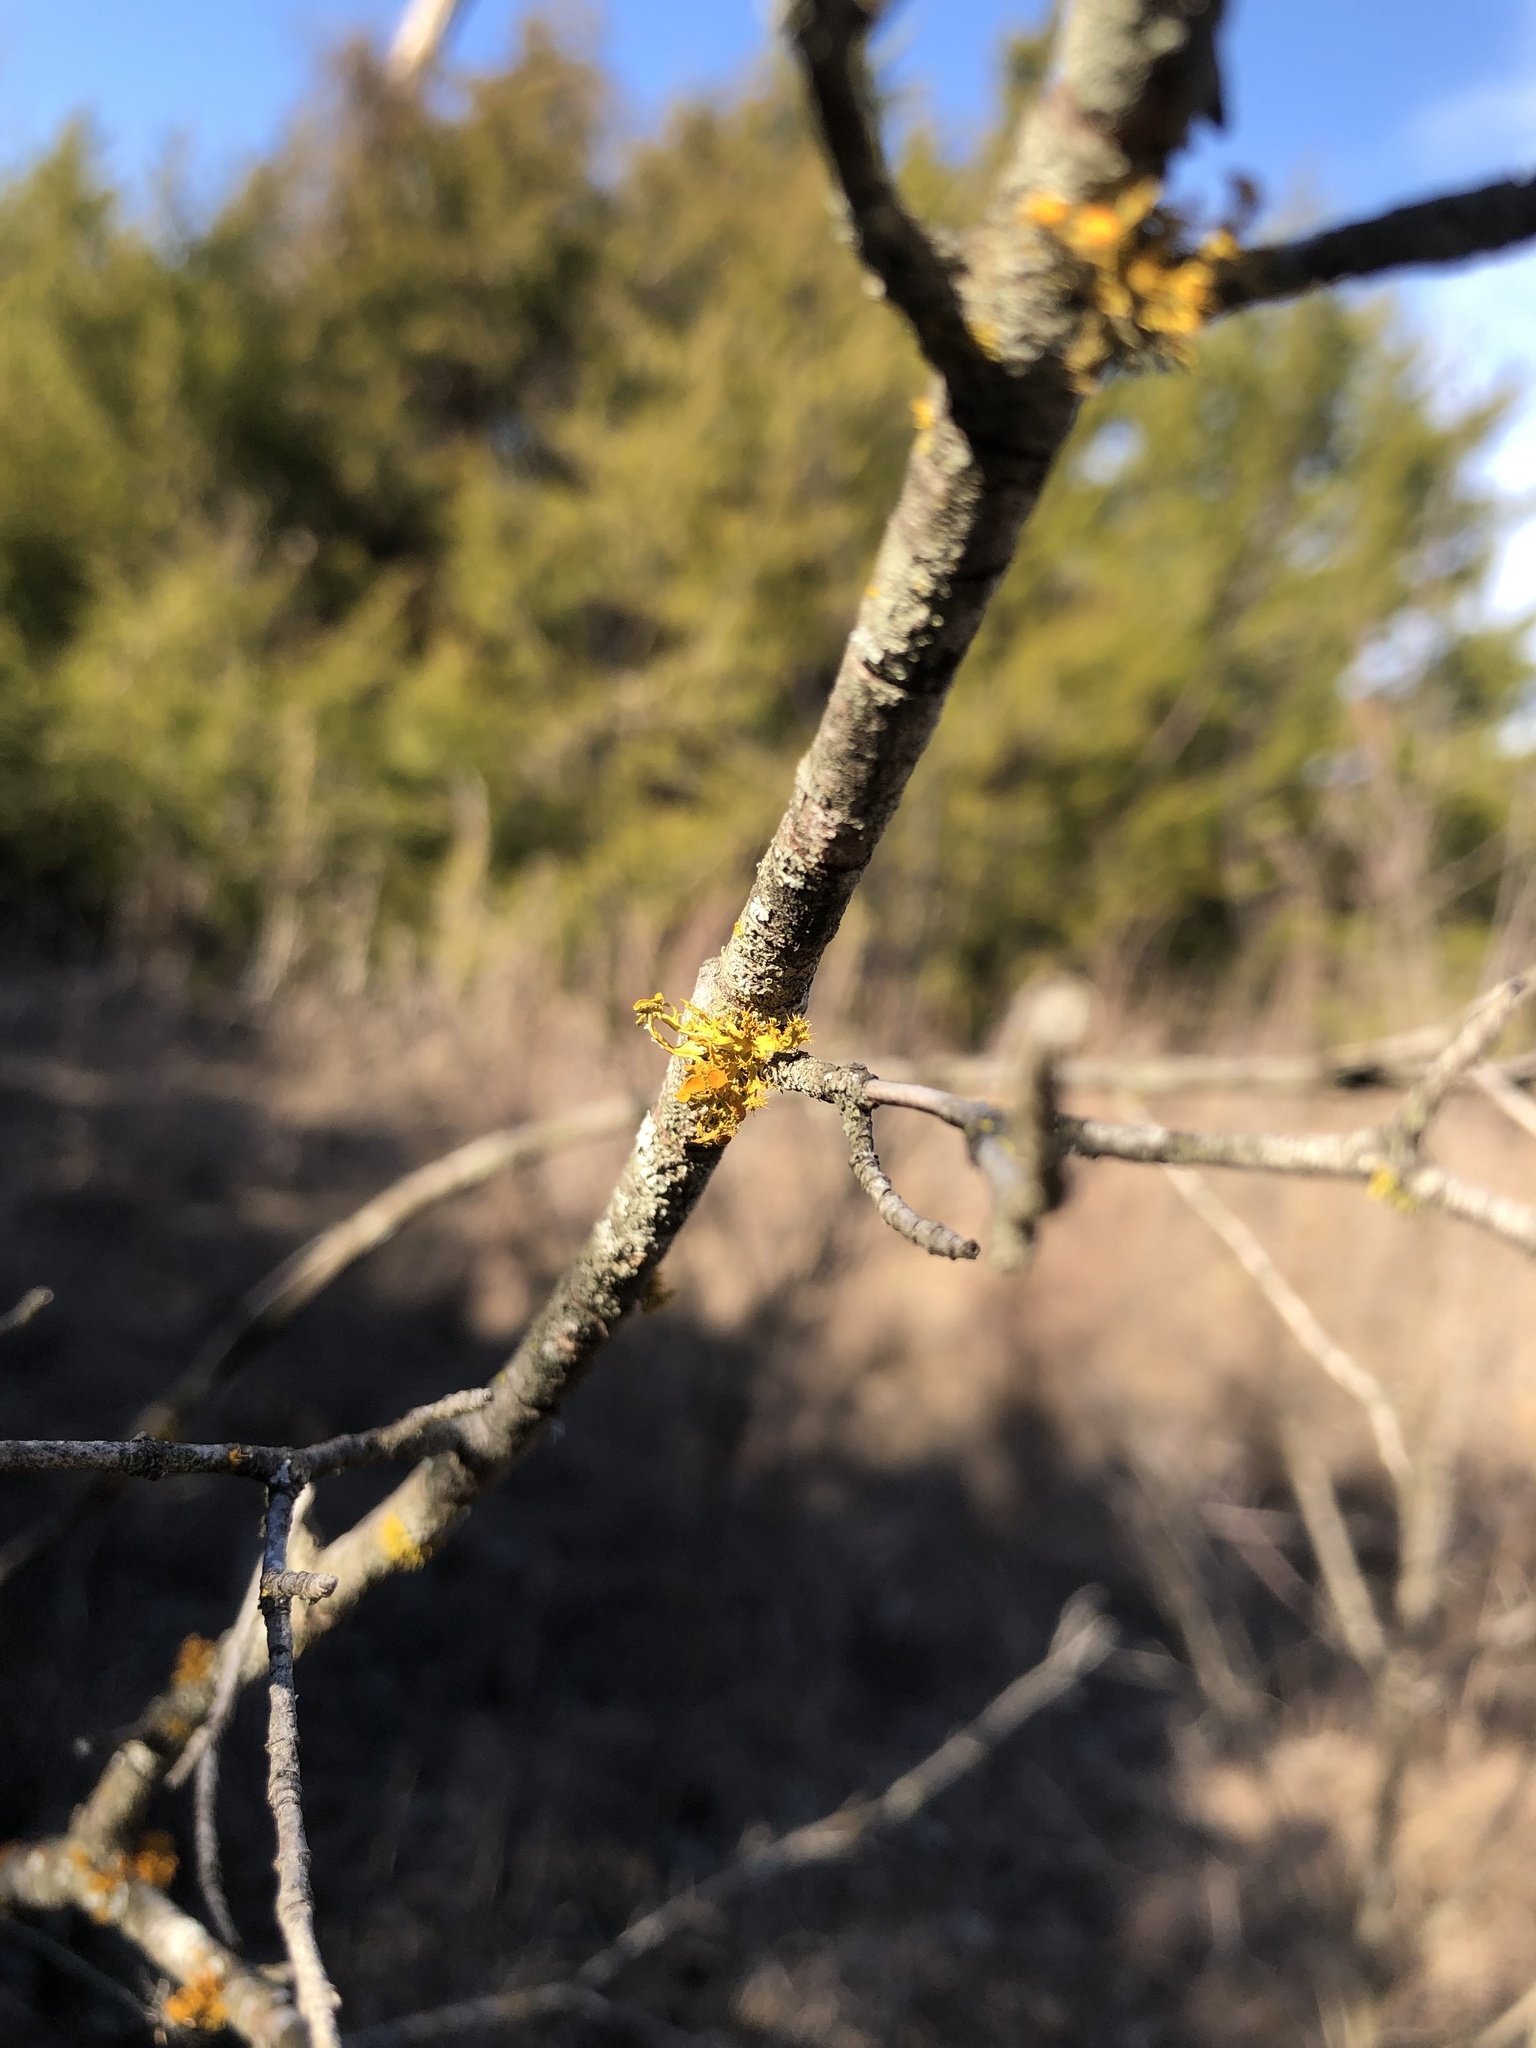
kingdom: Fungi
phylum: Ascomycota
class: Lecanoromycetes
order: Teloschistales
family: Teloschistaceae
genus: Niorma
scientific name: Niorma chrysophthalma
